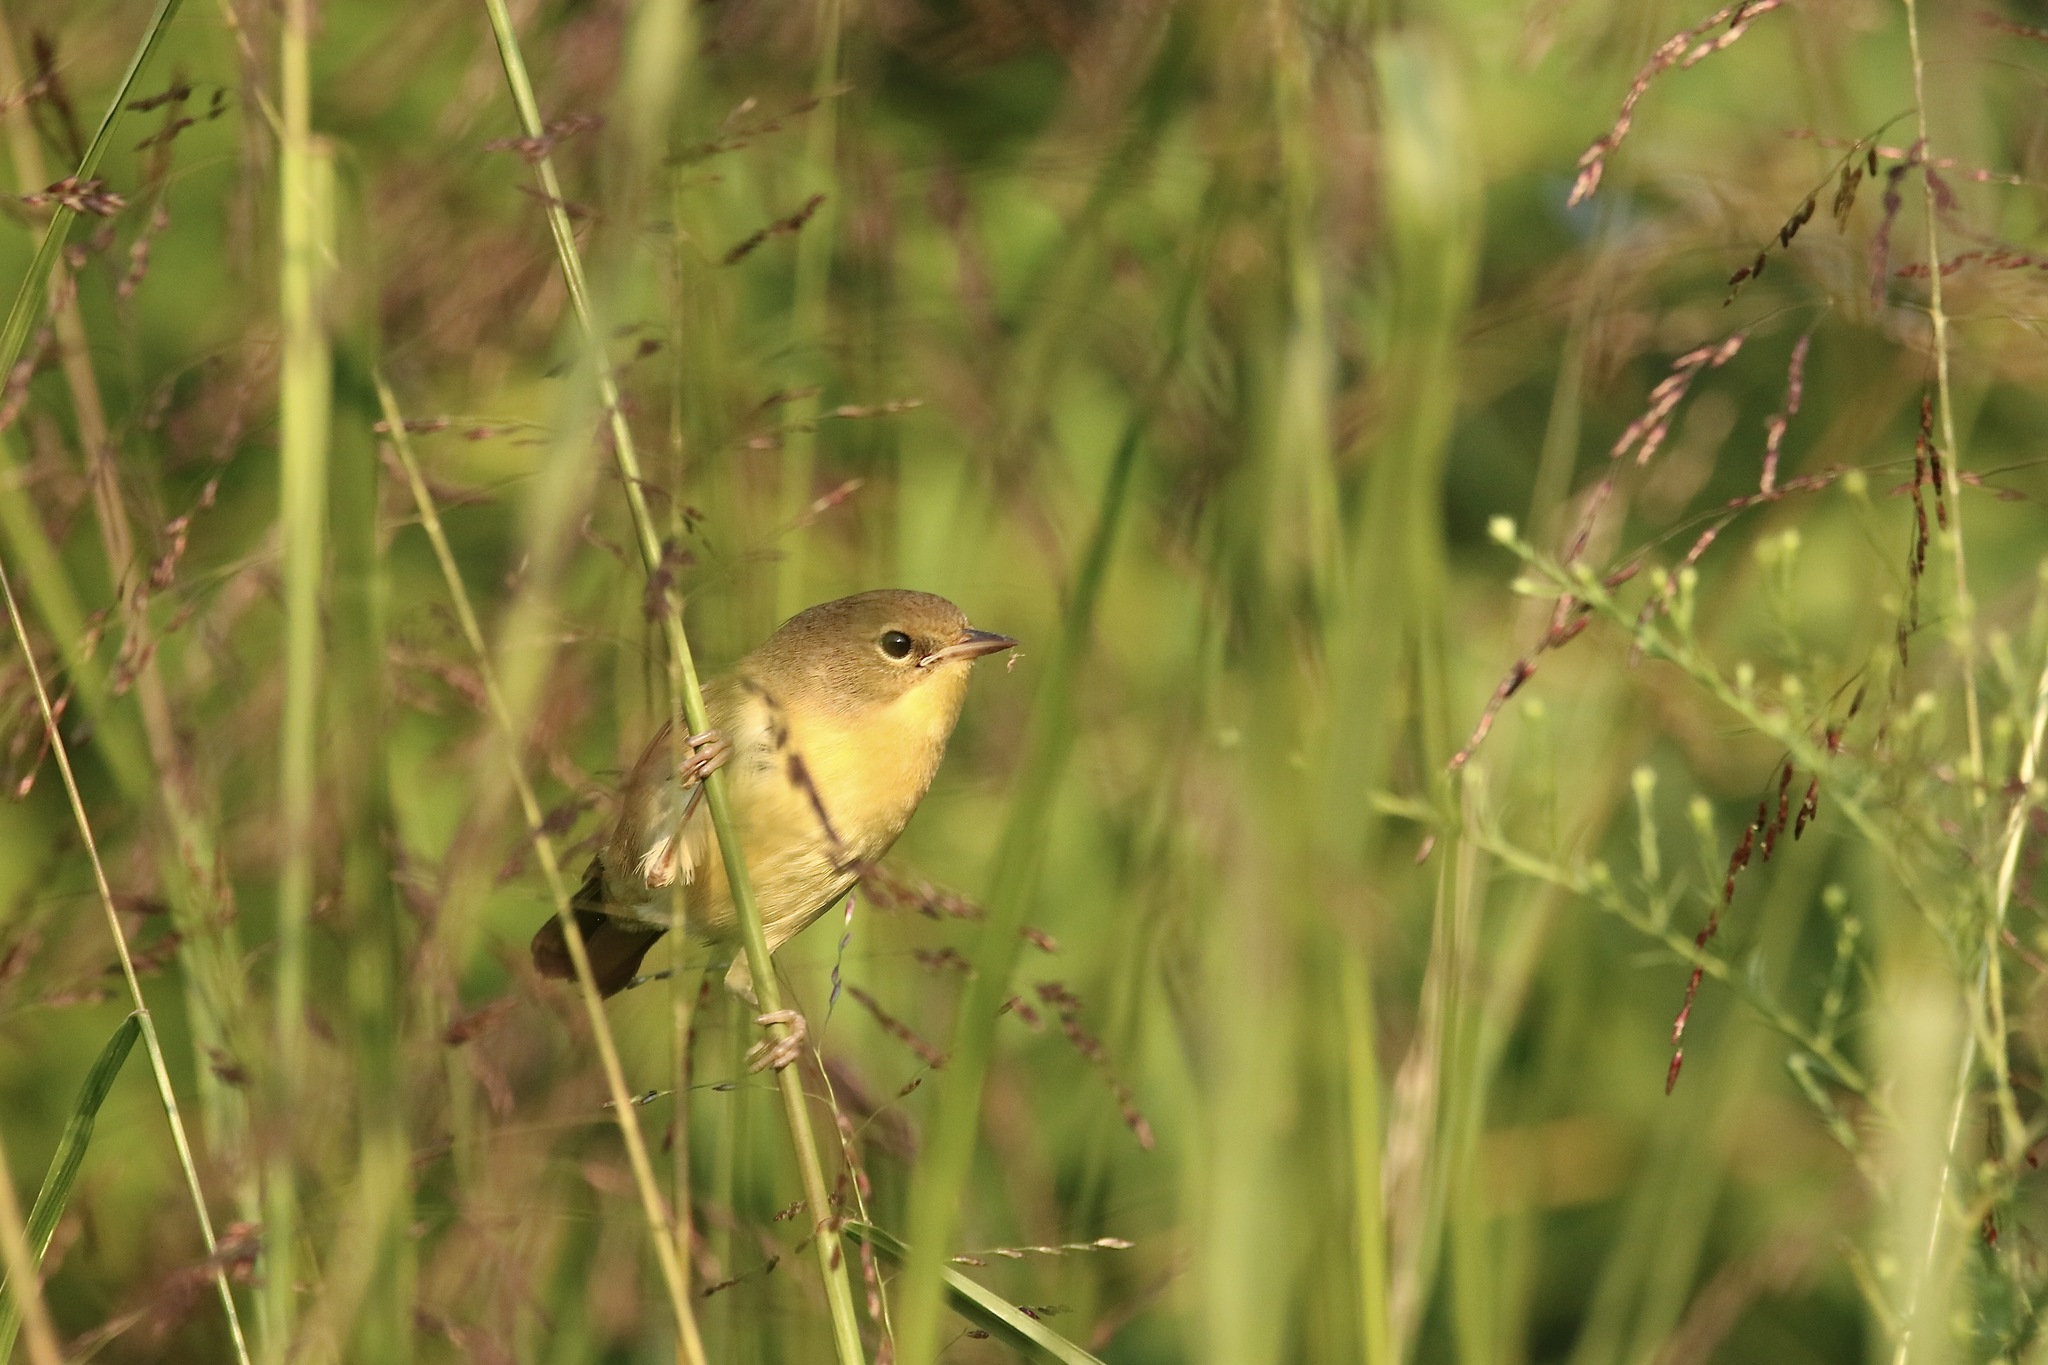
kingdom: Animalia
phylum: Chordata
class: Aves
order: Passeriformes
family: Parulidae
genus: Geothlypis
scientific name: Geothlypis trichas
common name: Common yellowthroat
